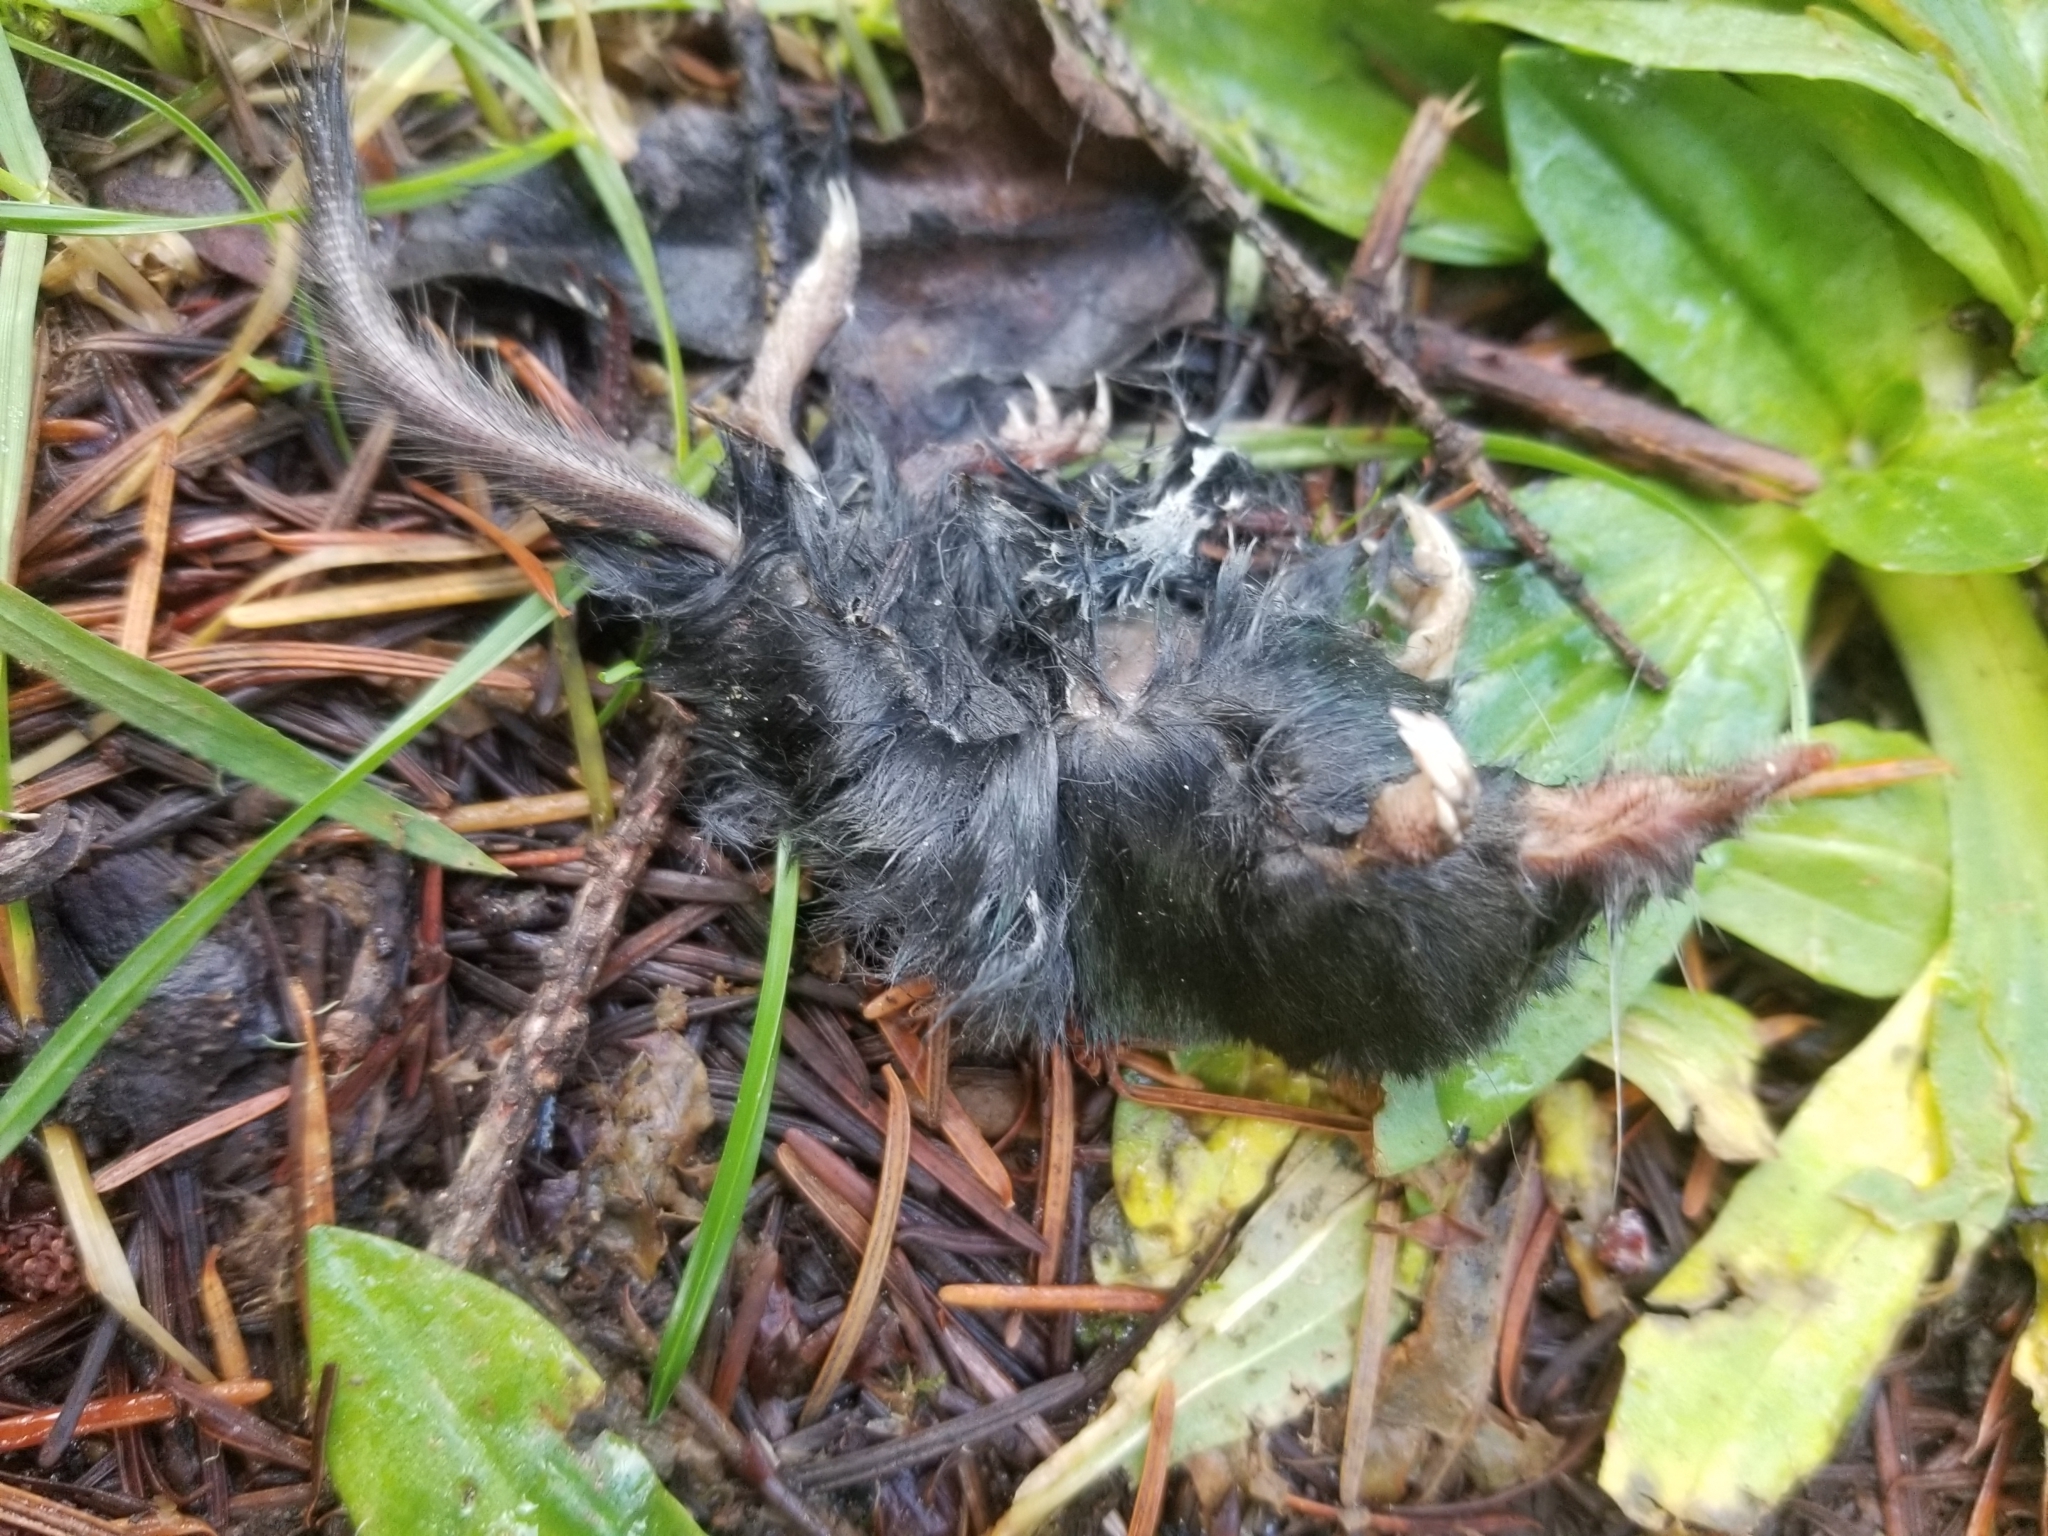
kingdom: Animalia
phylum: Chordata
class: Mammalia
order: Soricomorpha
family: Talpidae
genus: Neurotrichus
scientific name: Neurotrichus gibbsii
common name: American shrew mole
